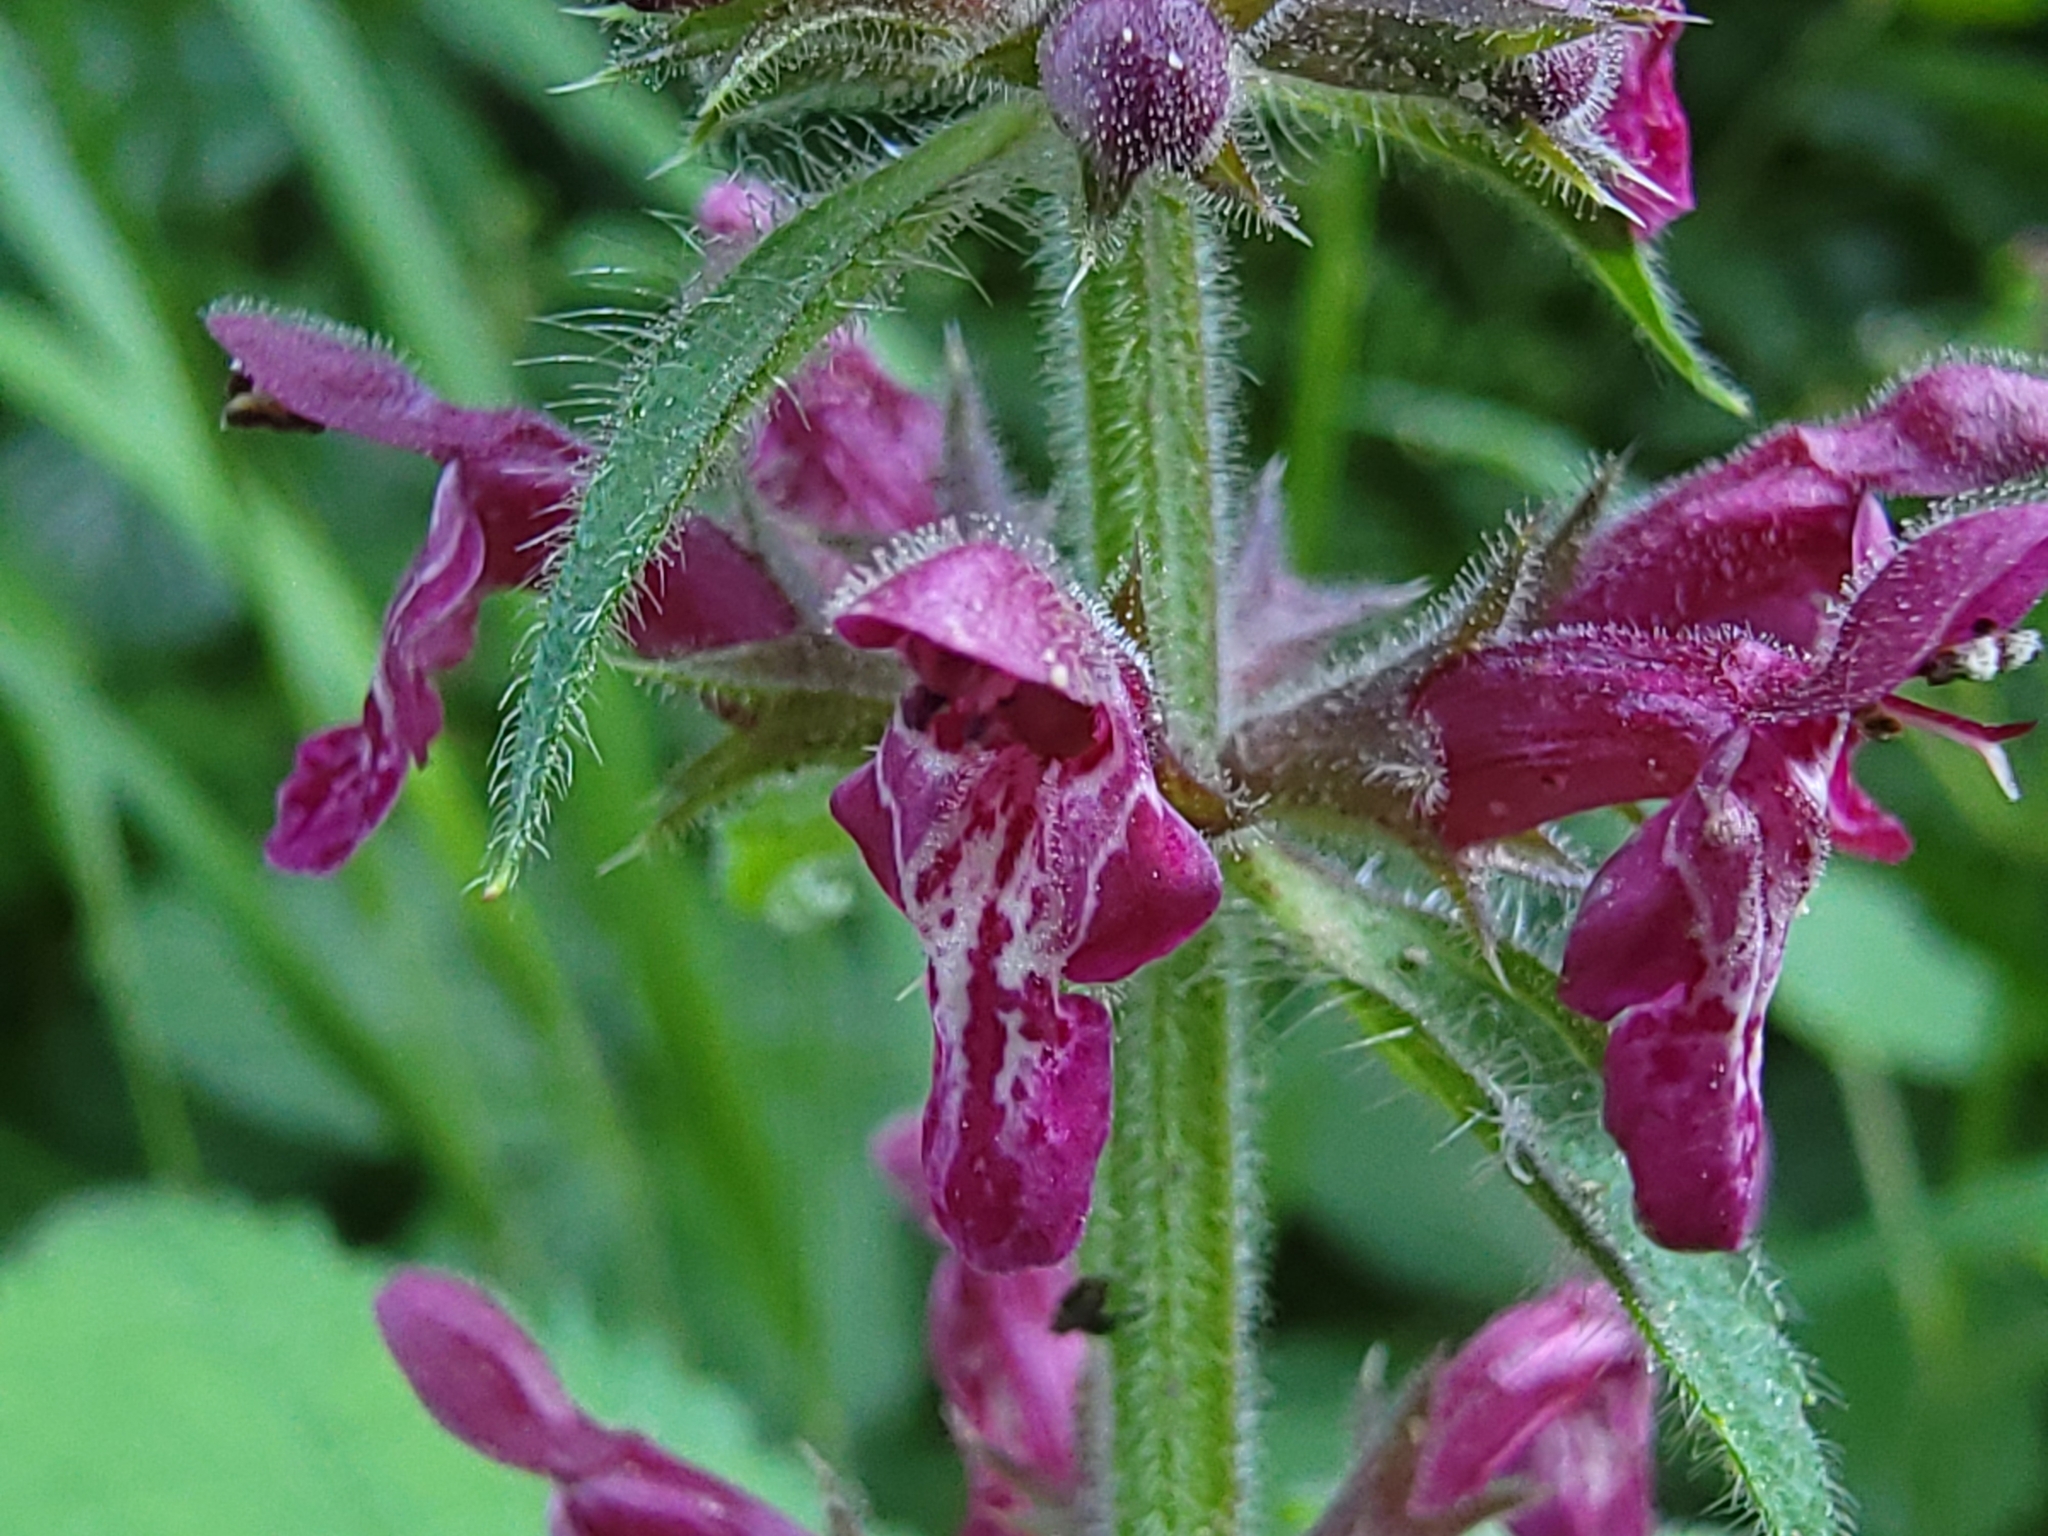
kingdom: Plantae
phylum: Tracheophyta
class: Magnoliopsida
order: Lamiales
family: Lamiaceae
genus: Stachys
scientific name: Stachys sylvatica
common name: Hedge woundwort
